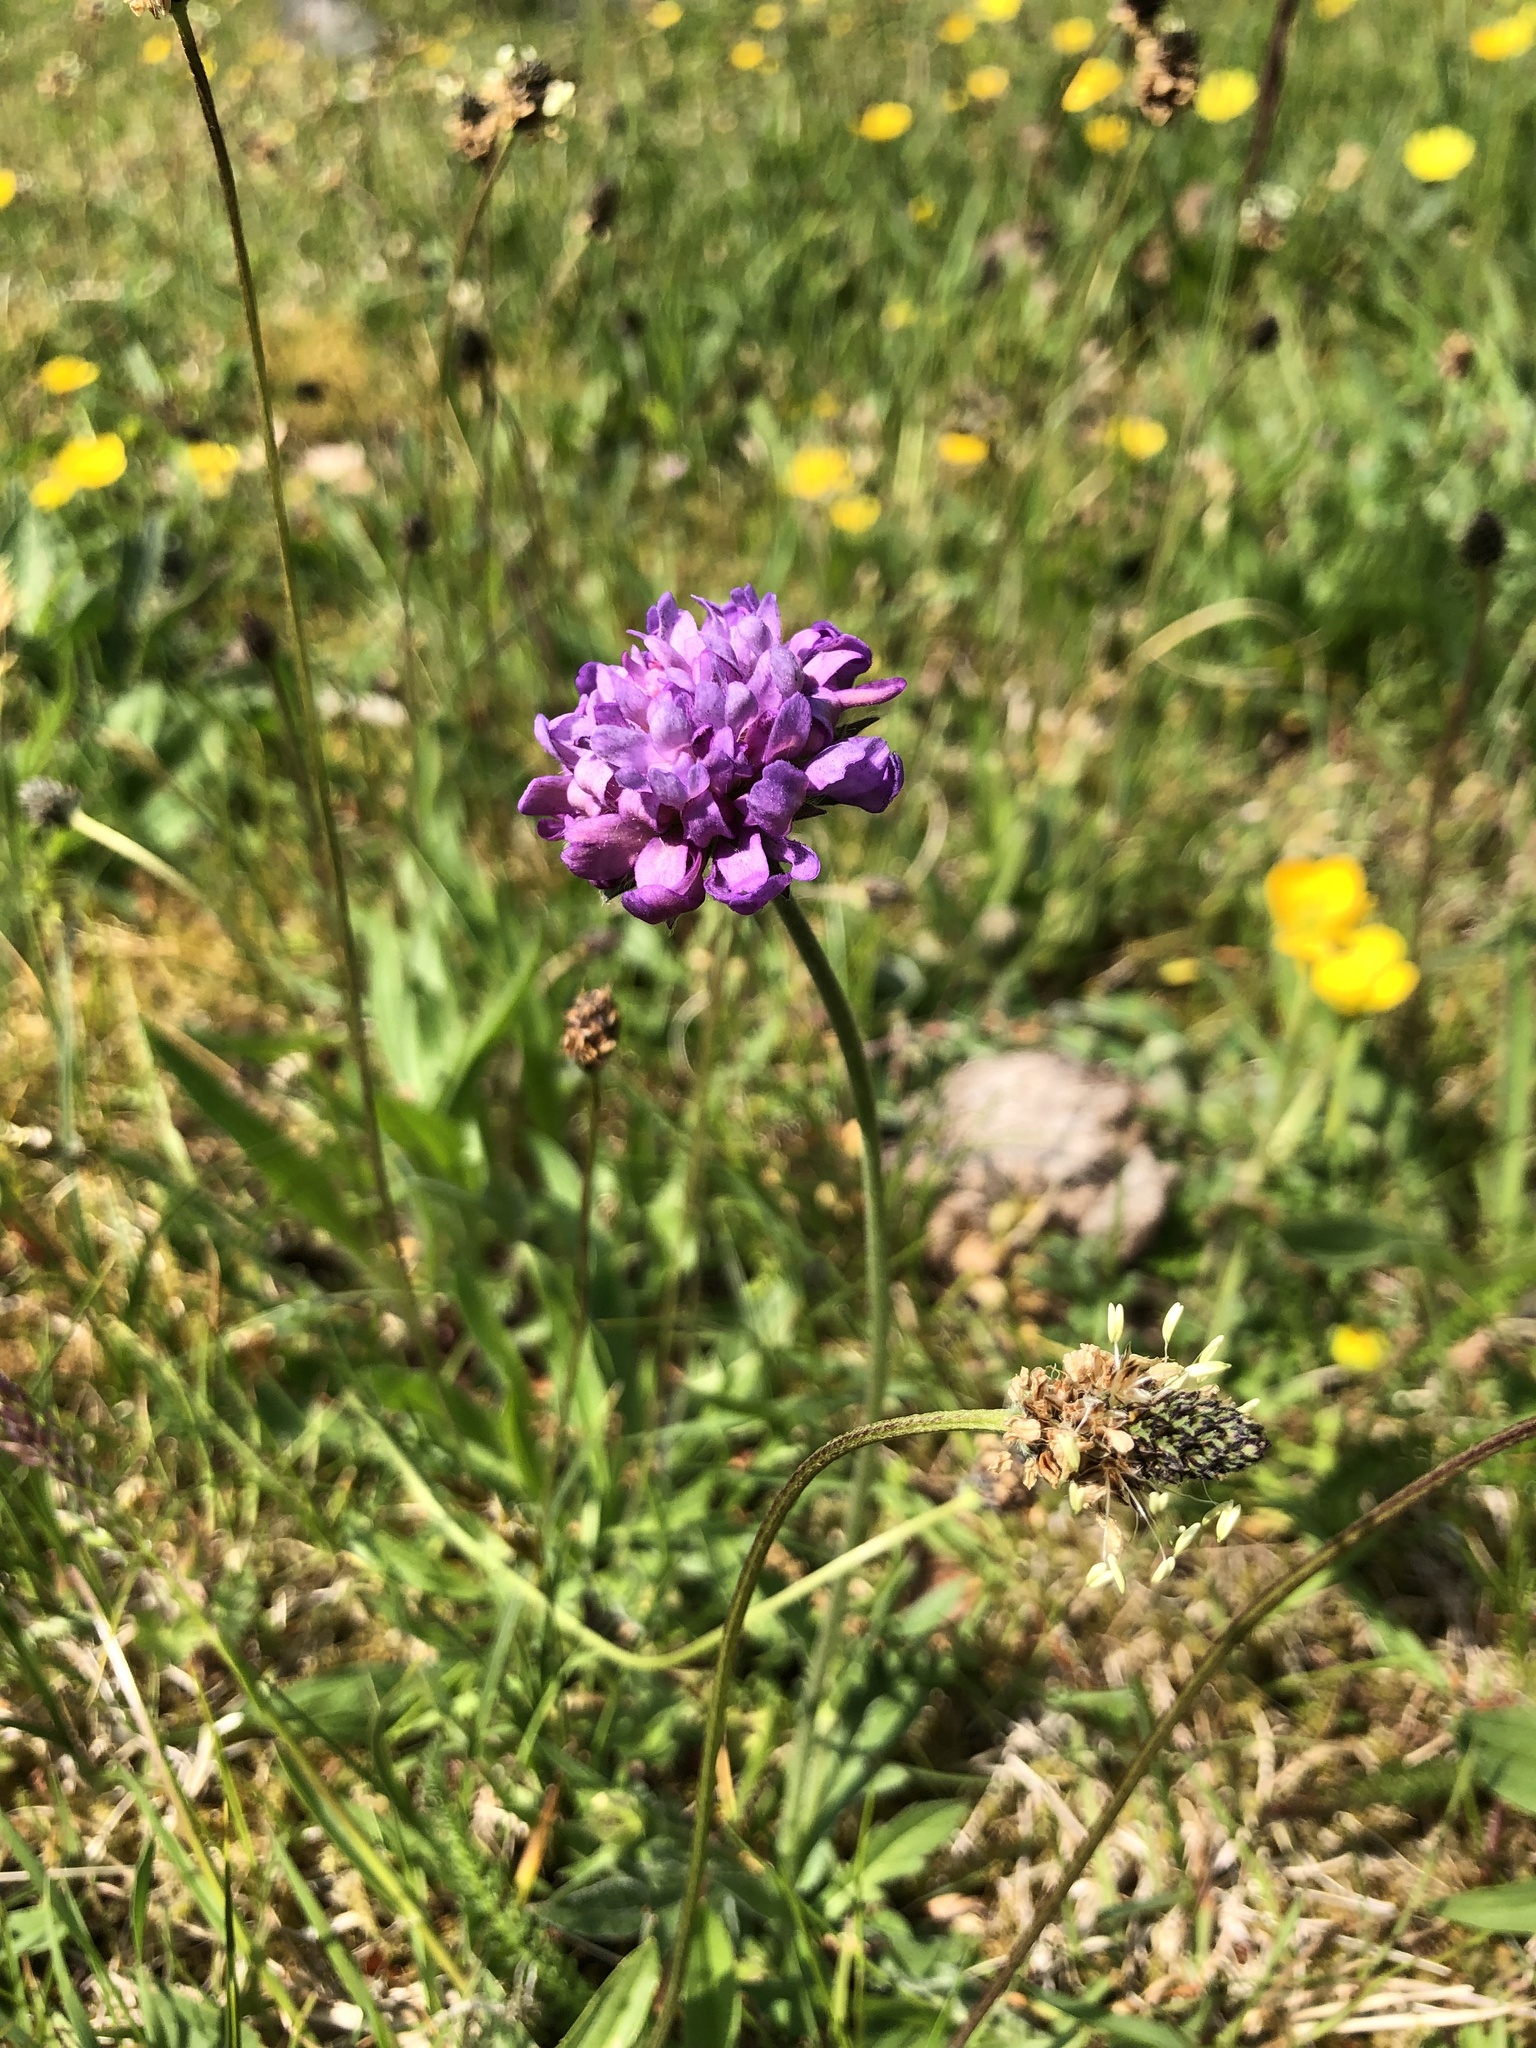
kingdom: Plantae
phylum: Tracheophyta
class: Magnoliopsida
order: Dipsacales
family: Caprifoliaceae
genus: Knautia
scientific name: Knautia arvensis
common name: Field scabiosa
